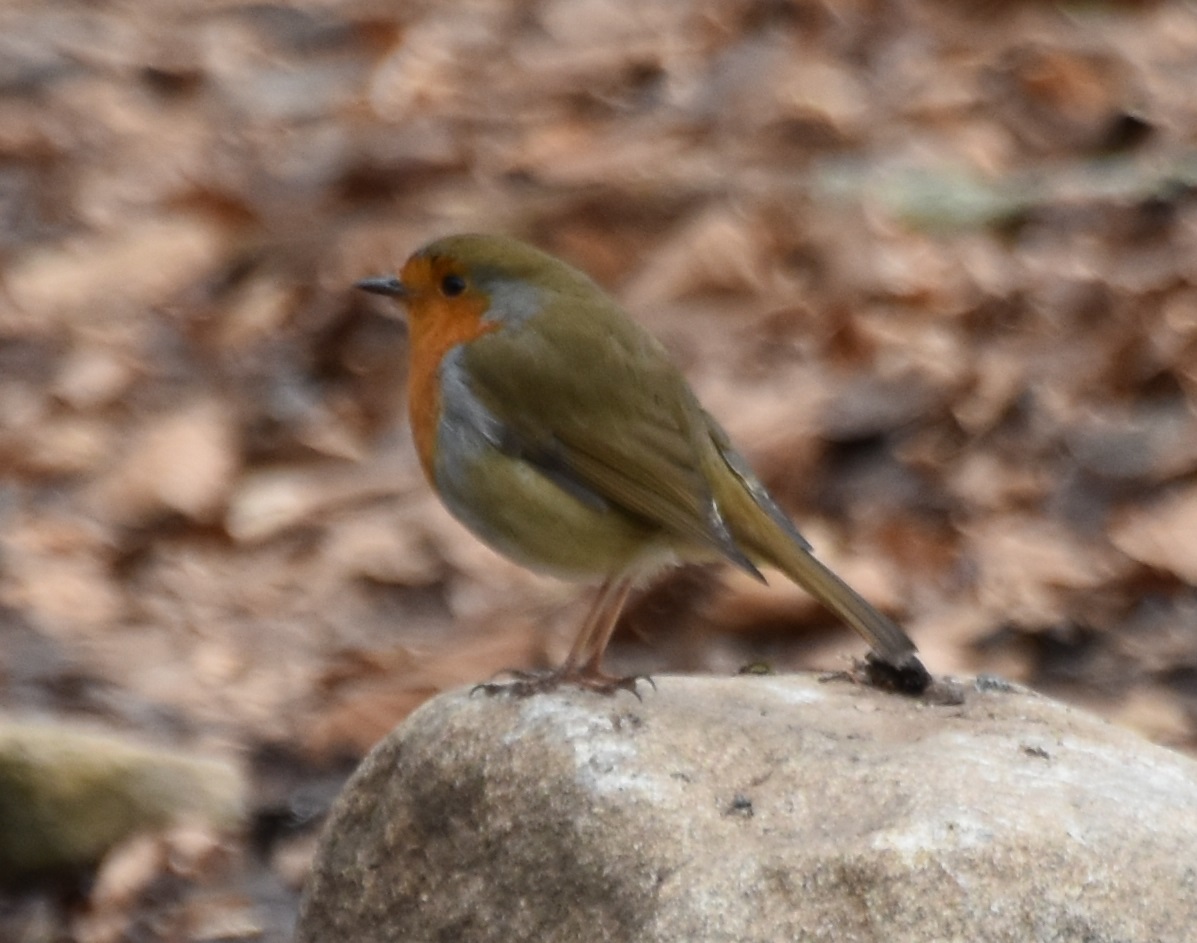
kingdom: Animalia
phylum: Chordata
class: Aves
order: Passeriformes
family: Muscicapidae
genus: Erithacus
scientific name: Erithacus rubecula
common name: European robin
